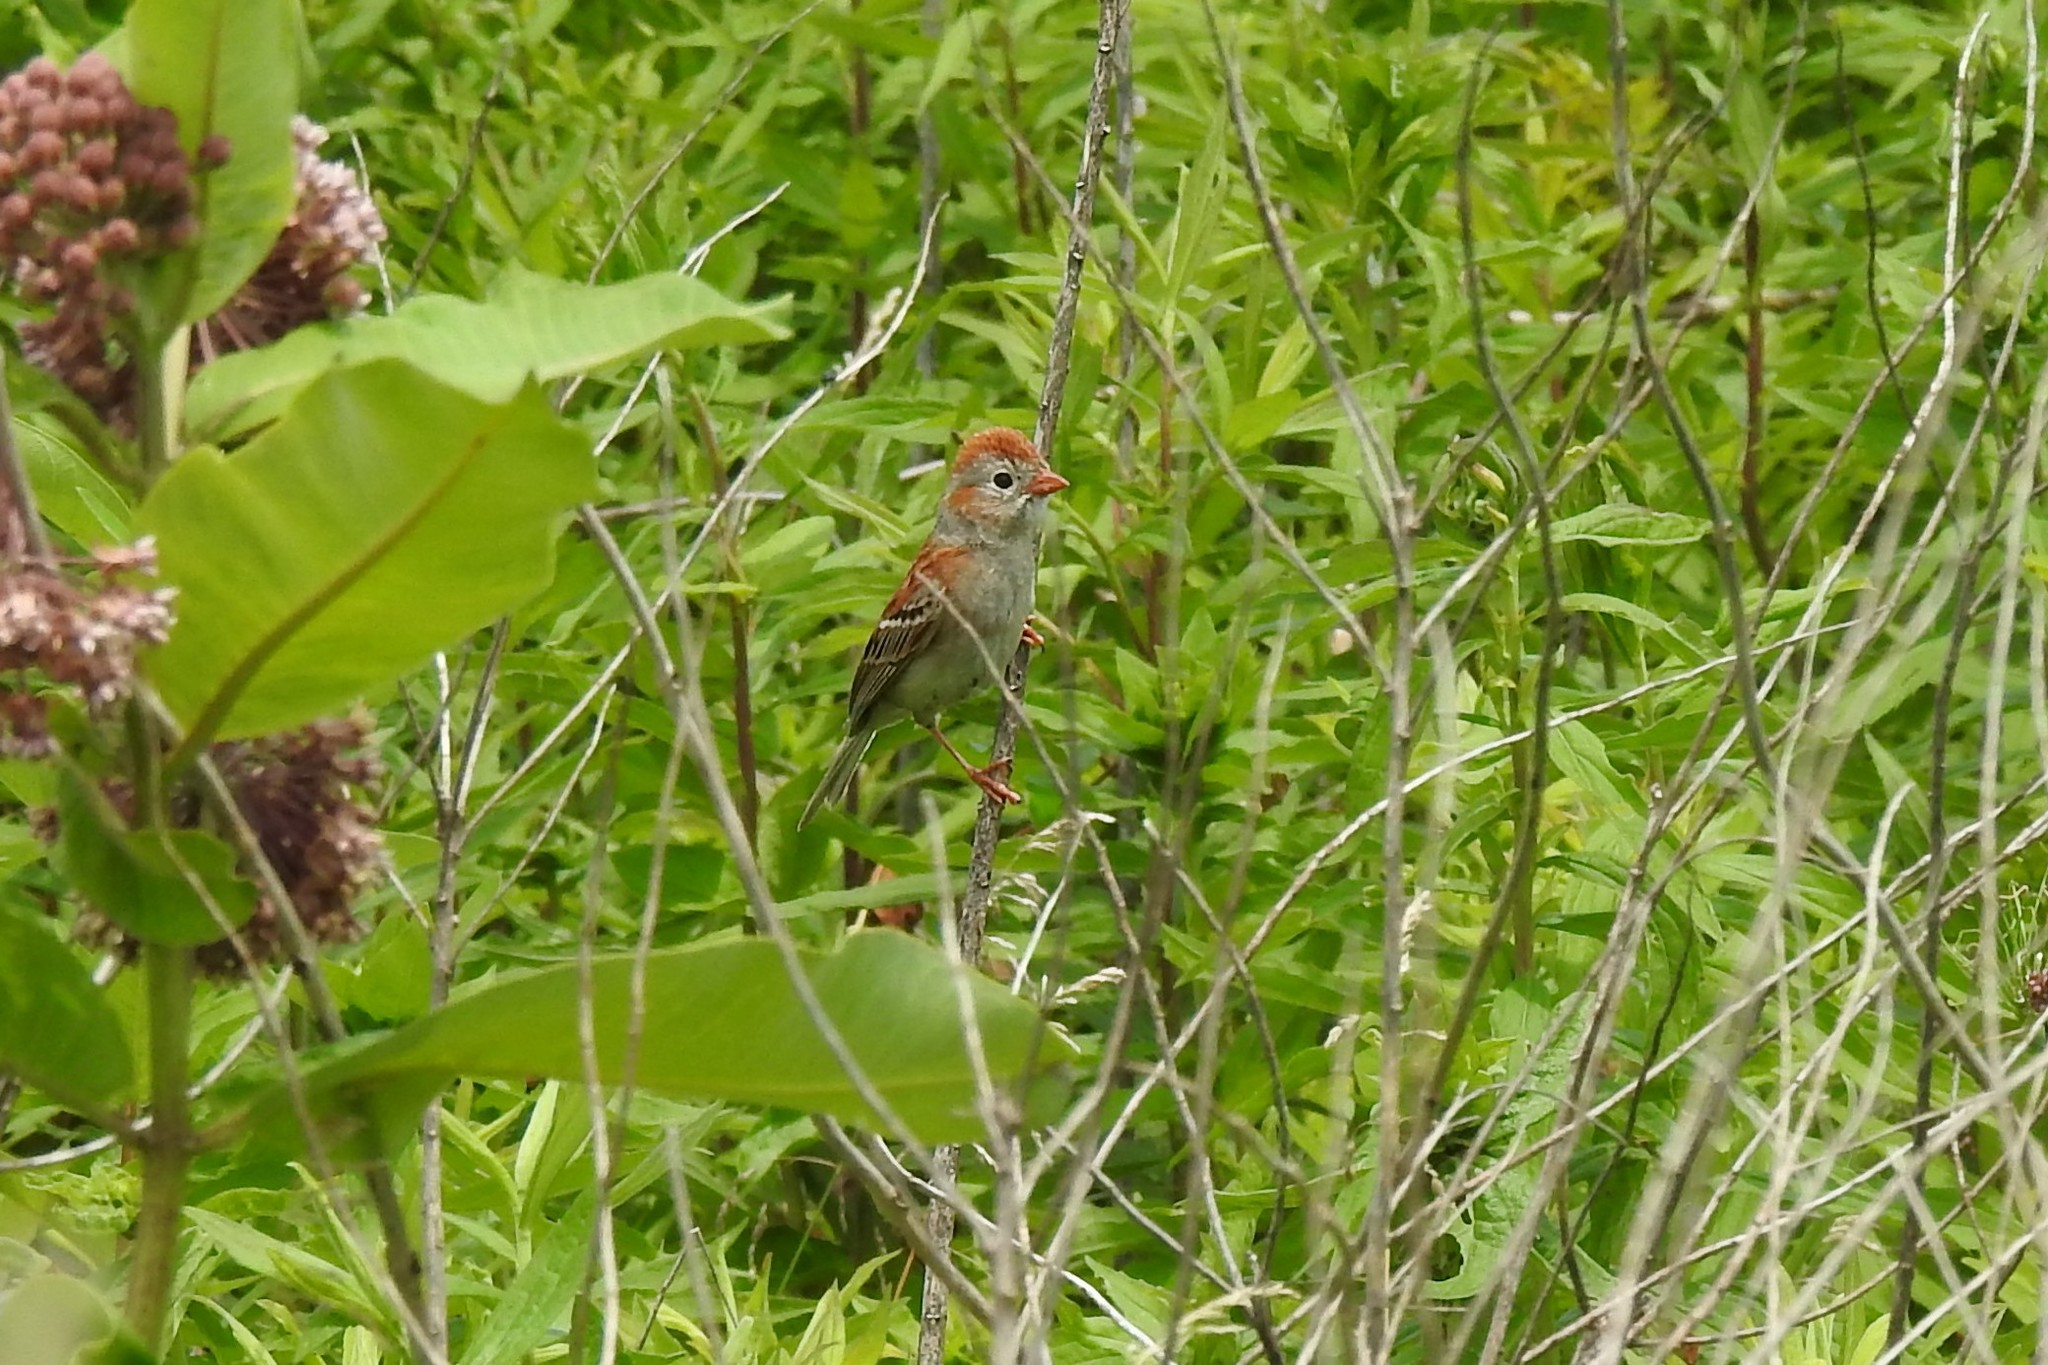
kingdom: Animalia
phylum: Chordata
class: Aves
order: Passeriformes
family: Passerellidae
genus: Spizella
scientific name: Spizella pusilla
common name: Field sparrow
